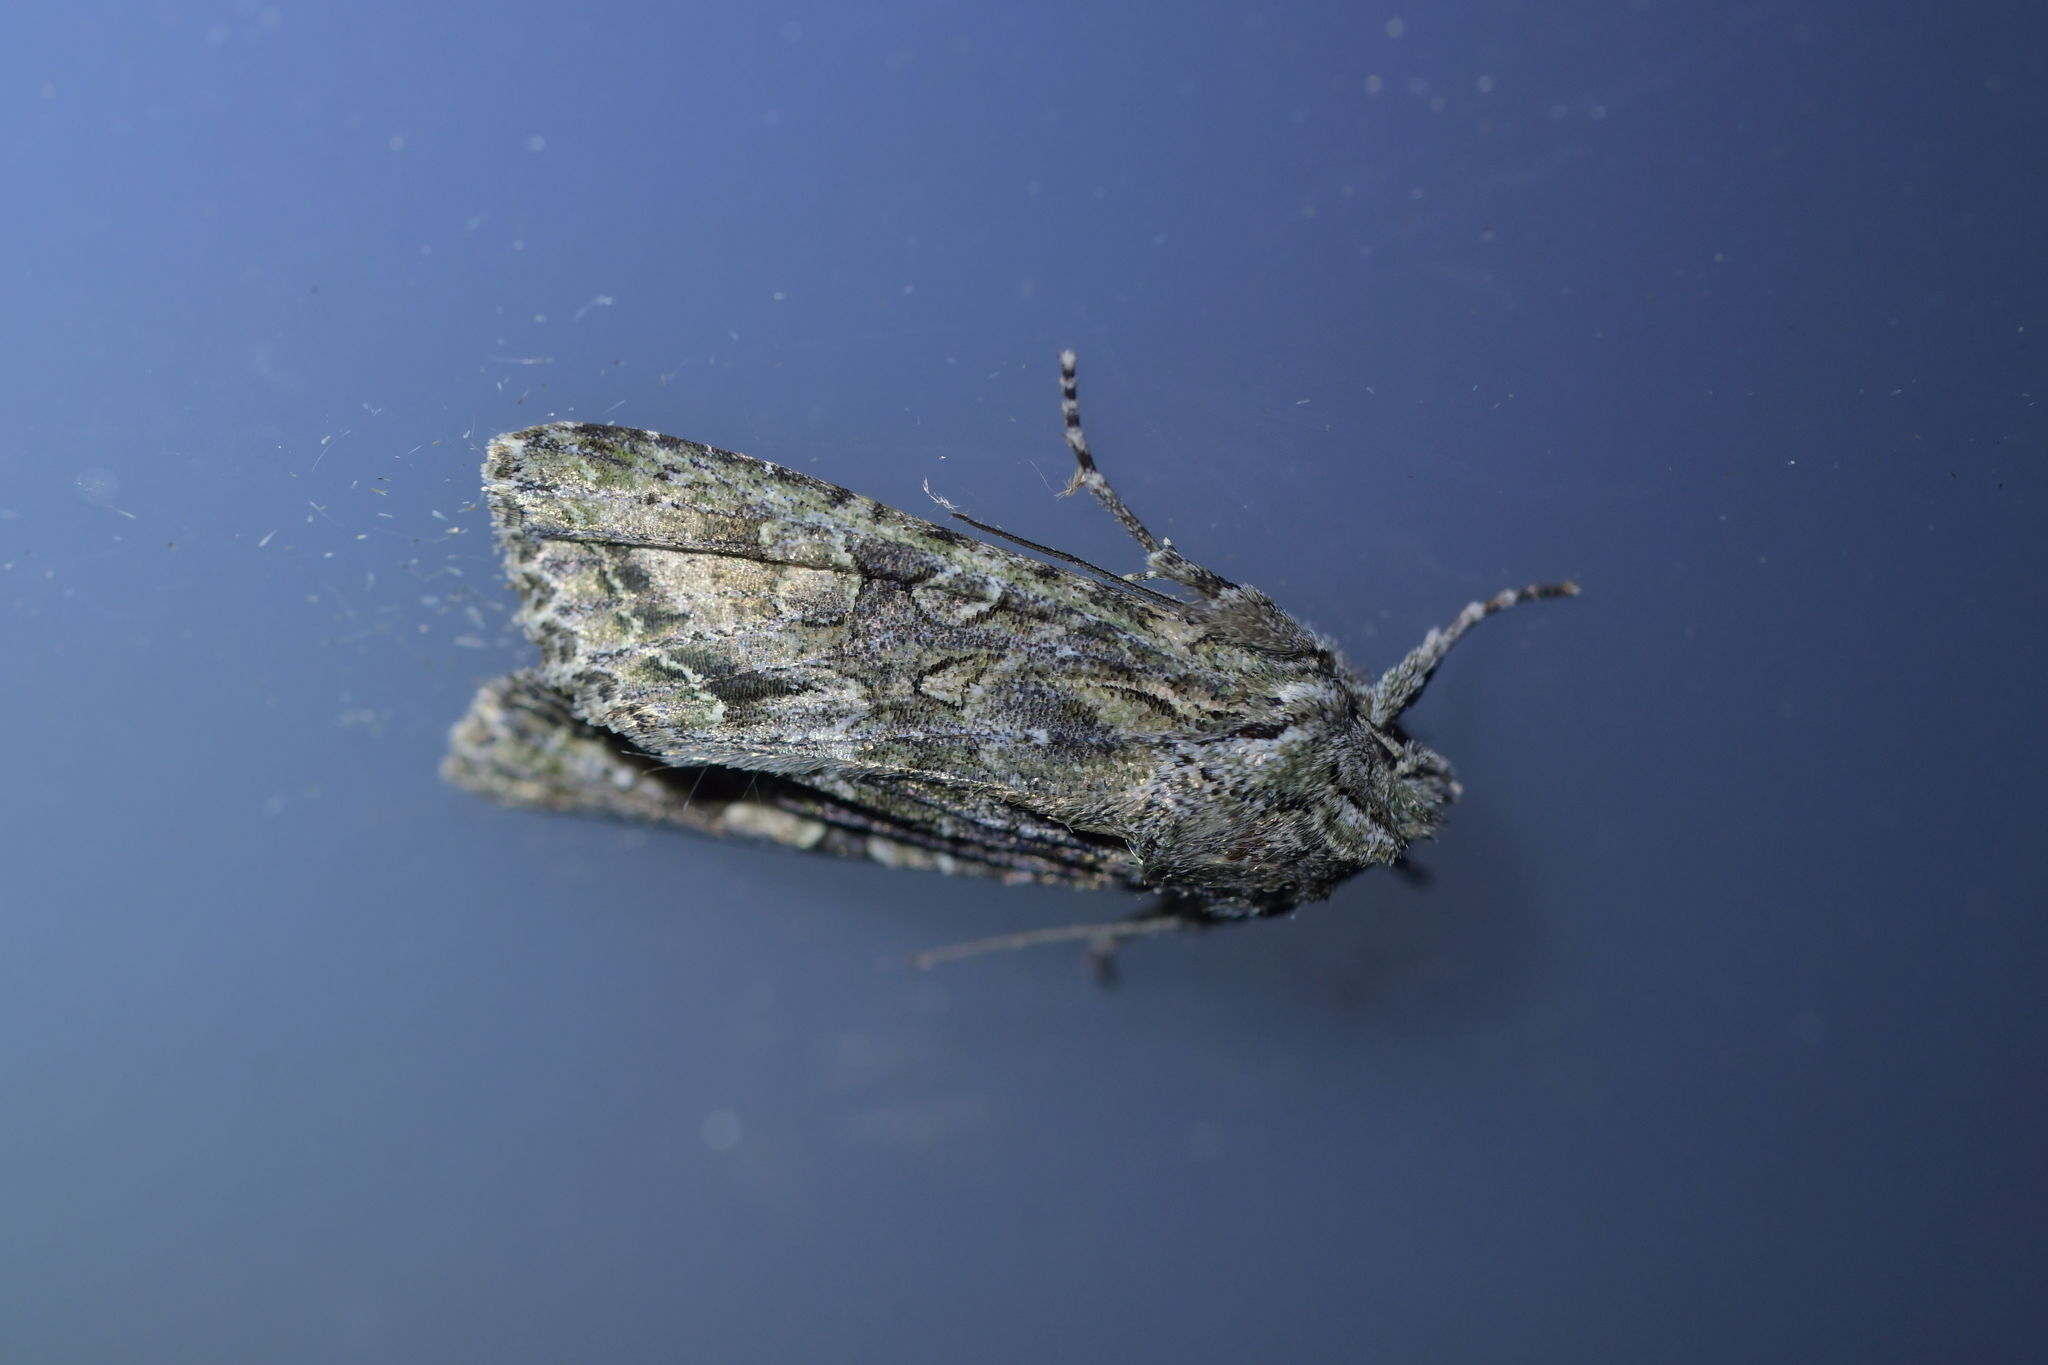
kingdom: Animalia
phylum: Arthropoda
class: Insecta
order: Lepidoptera
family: Noctuidae
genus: Ichneutica
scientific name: Ichneutica mutans
